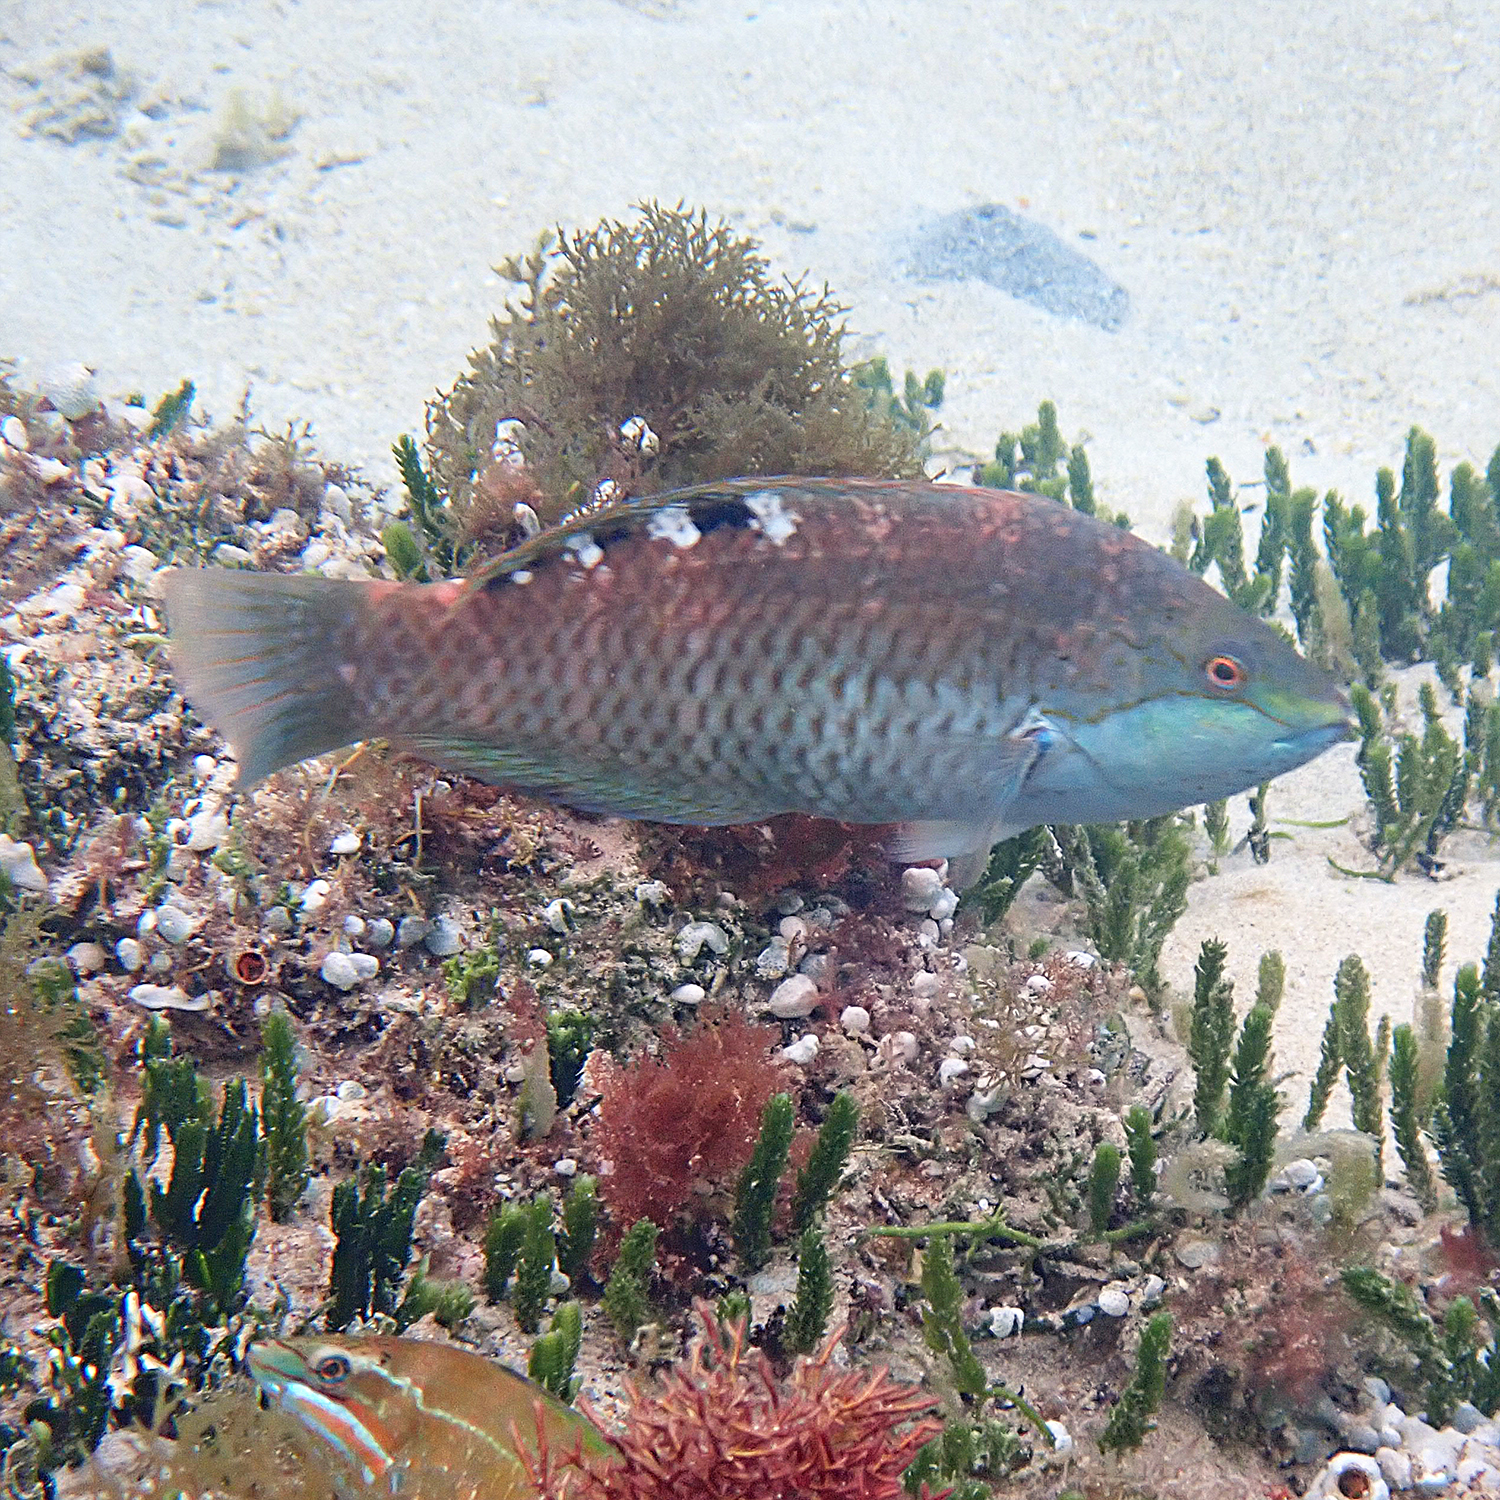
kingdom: Animalia
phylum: Chordata
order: Perciformes
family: Labridae
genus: Pseudolabrus
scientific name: Pseudolabrus luculentus
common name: Luculentus wrasse
